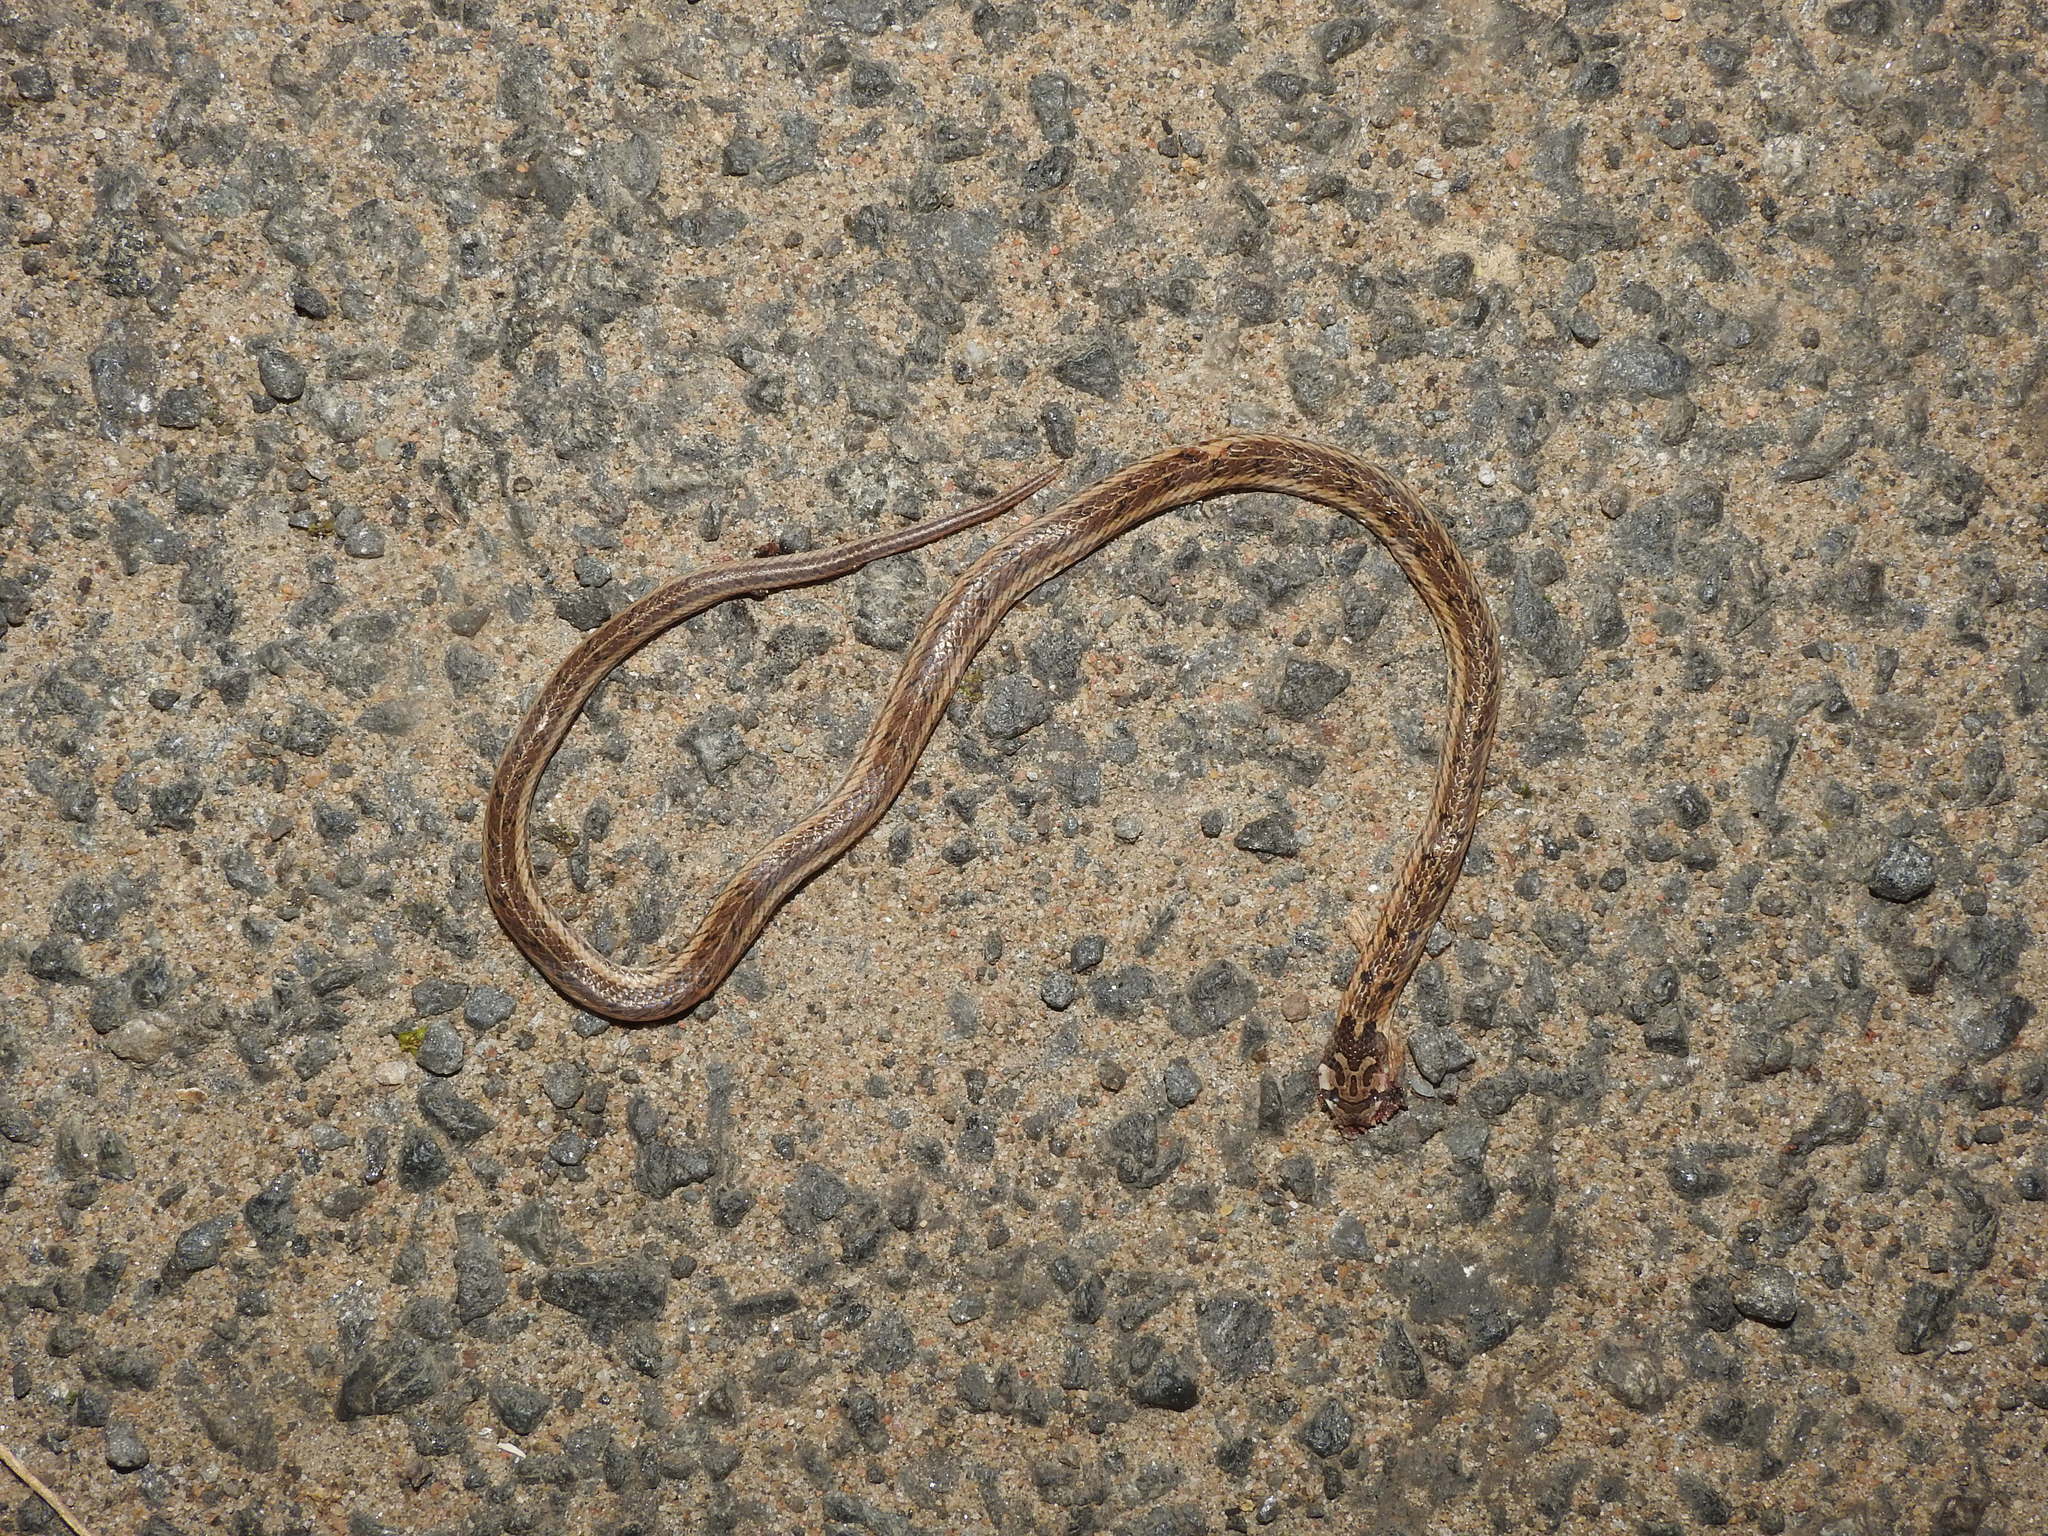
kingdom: Animalia
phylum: Chordata
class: Squamata
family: Colubridae
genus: Oligodon
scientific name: Oligodon taeniolatus
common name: Loos snake
